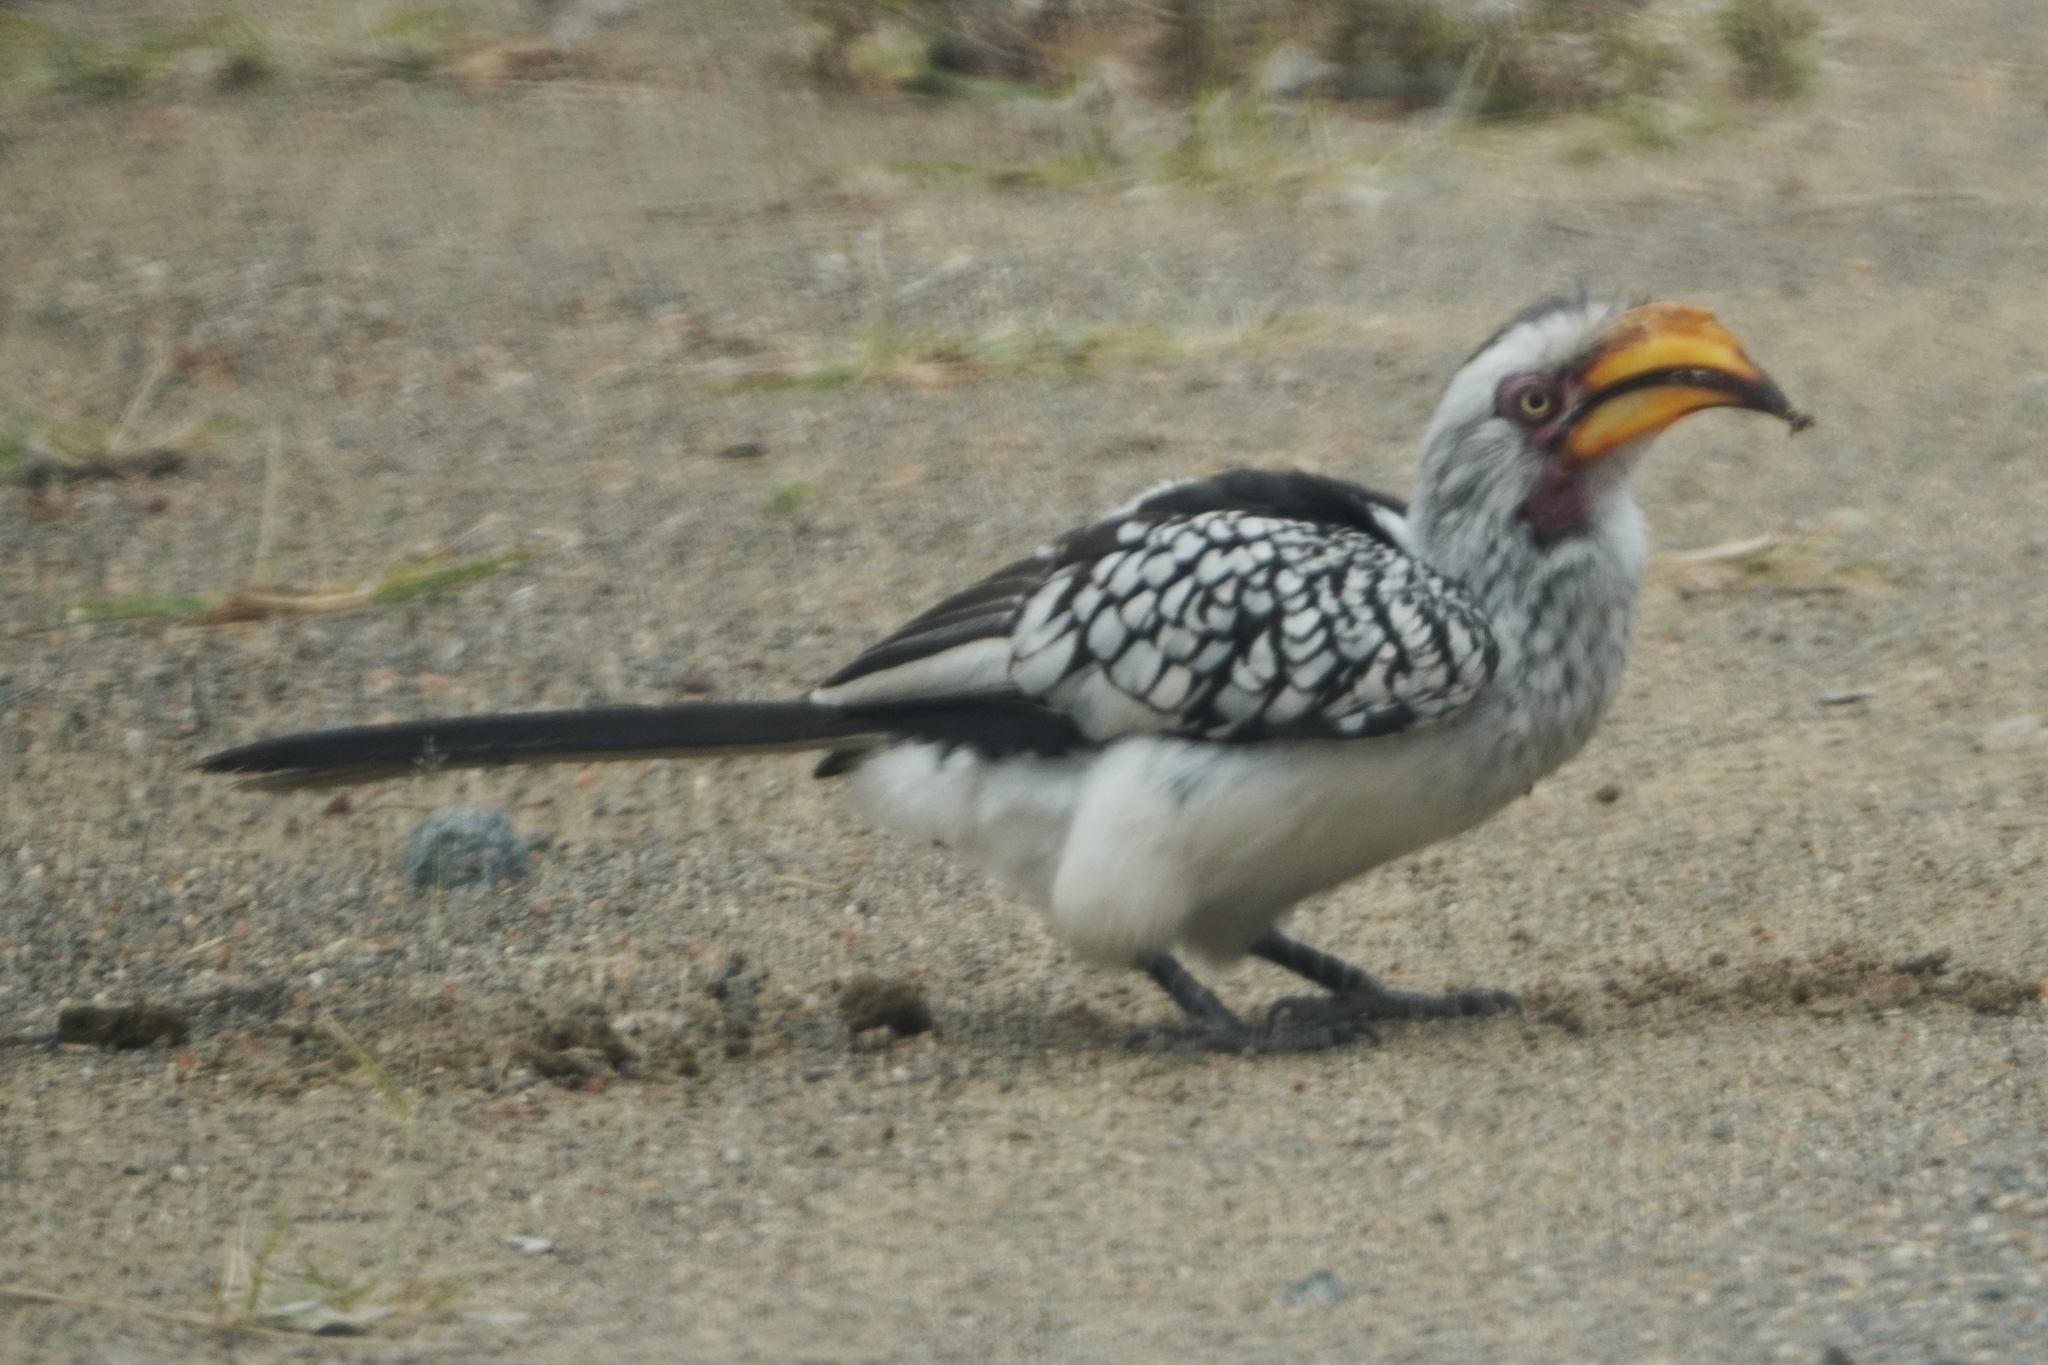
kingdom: Animalia
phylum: Chordata
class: Aves
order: Bucerotiformes
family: Bucerotidae
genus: Tockus
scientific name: Tockus leucomelas
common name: Southern yellow-billed hornbill
